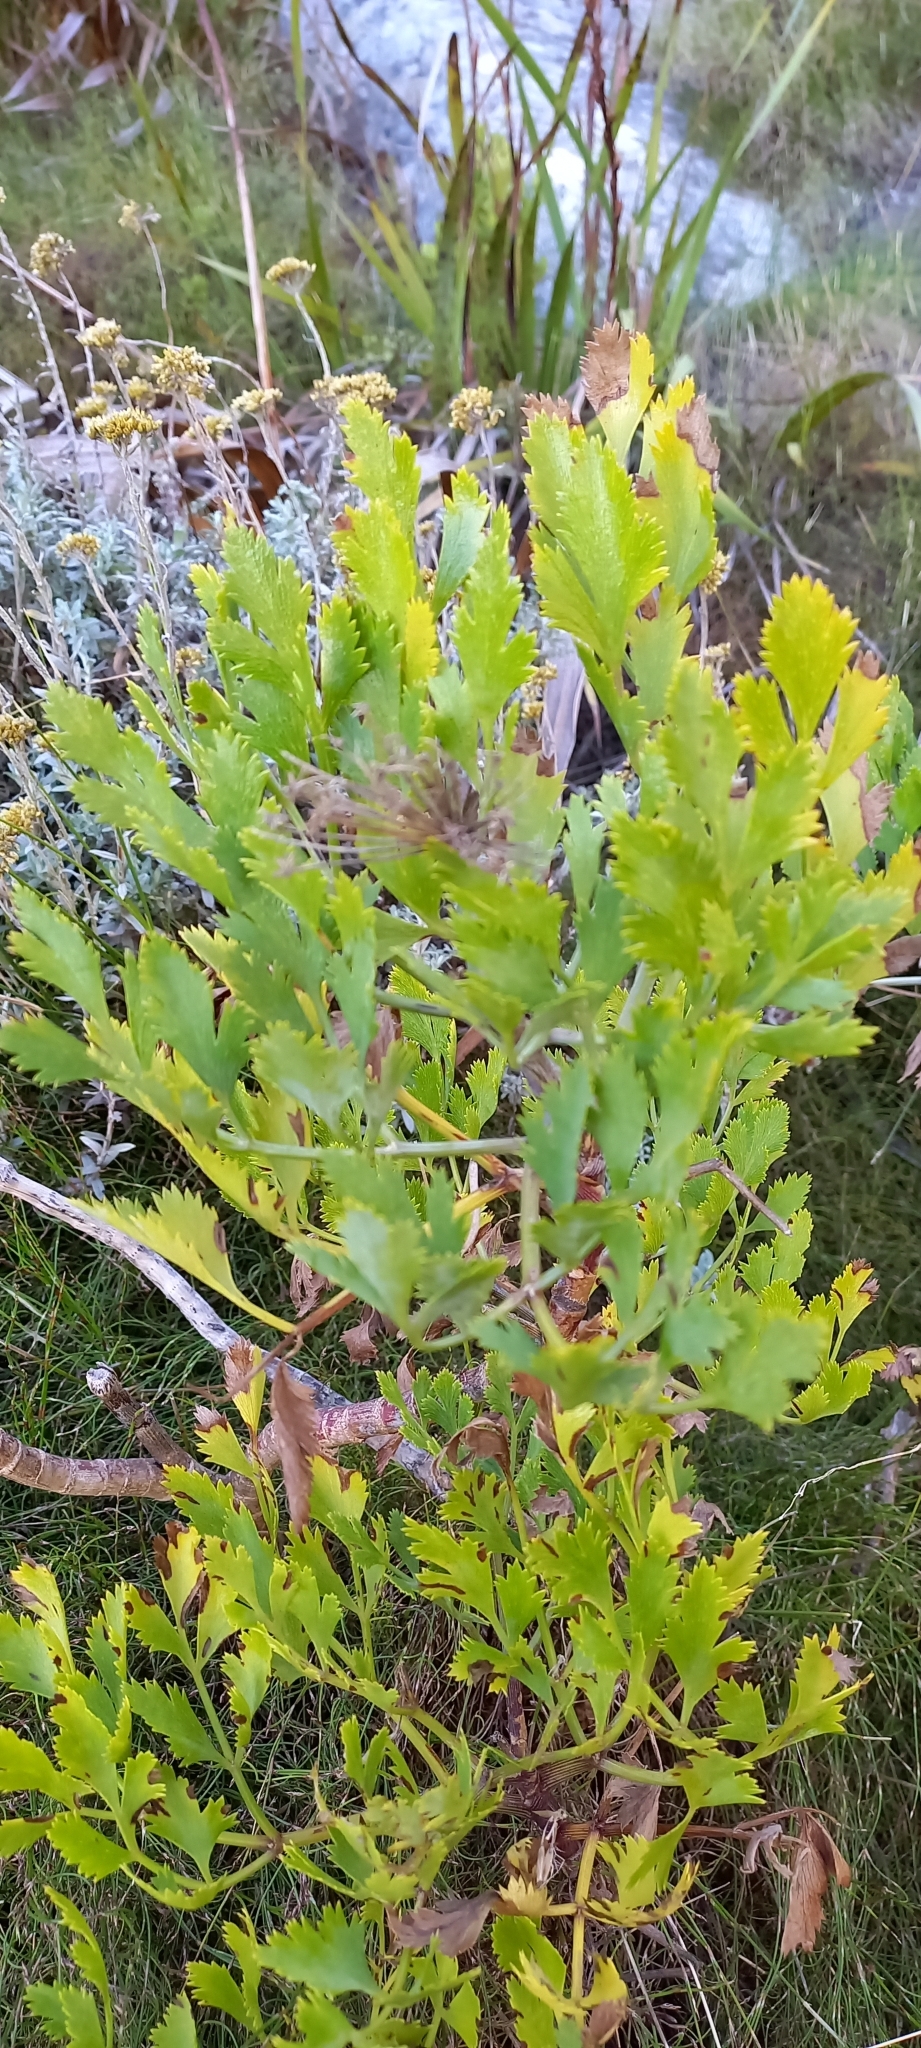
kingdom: Plantae
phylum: Tracheophyta
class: Magnoliopsida
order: Apiales
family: Apiaceae
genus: Notobubon
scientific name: Notobubon galbanum
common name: Blisterbush
